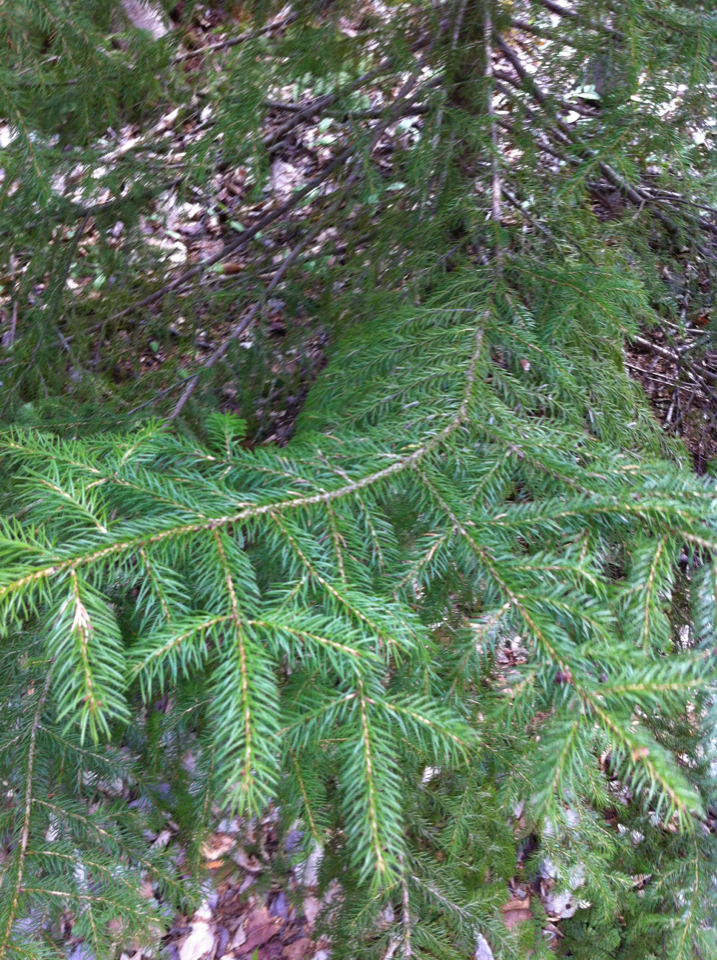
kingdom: Plantae
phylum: Tracheophyta
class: Pinopsida
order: Pinales
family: Pinaceae
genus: Picea
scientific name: Picea rubens
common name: Red spruce
